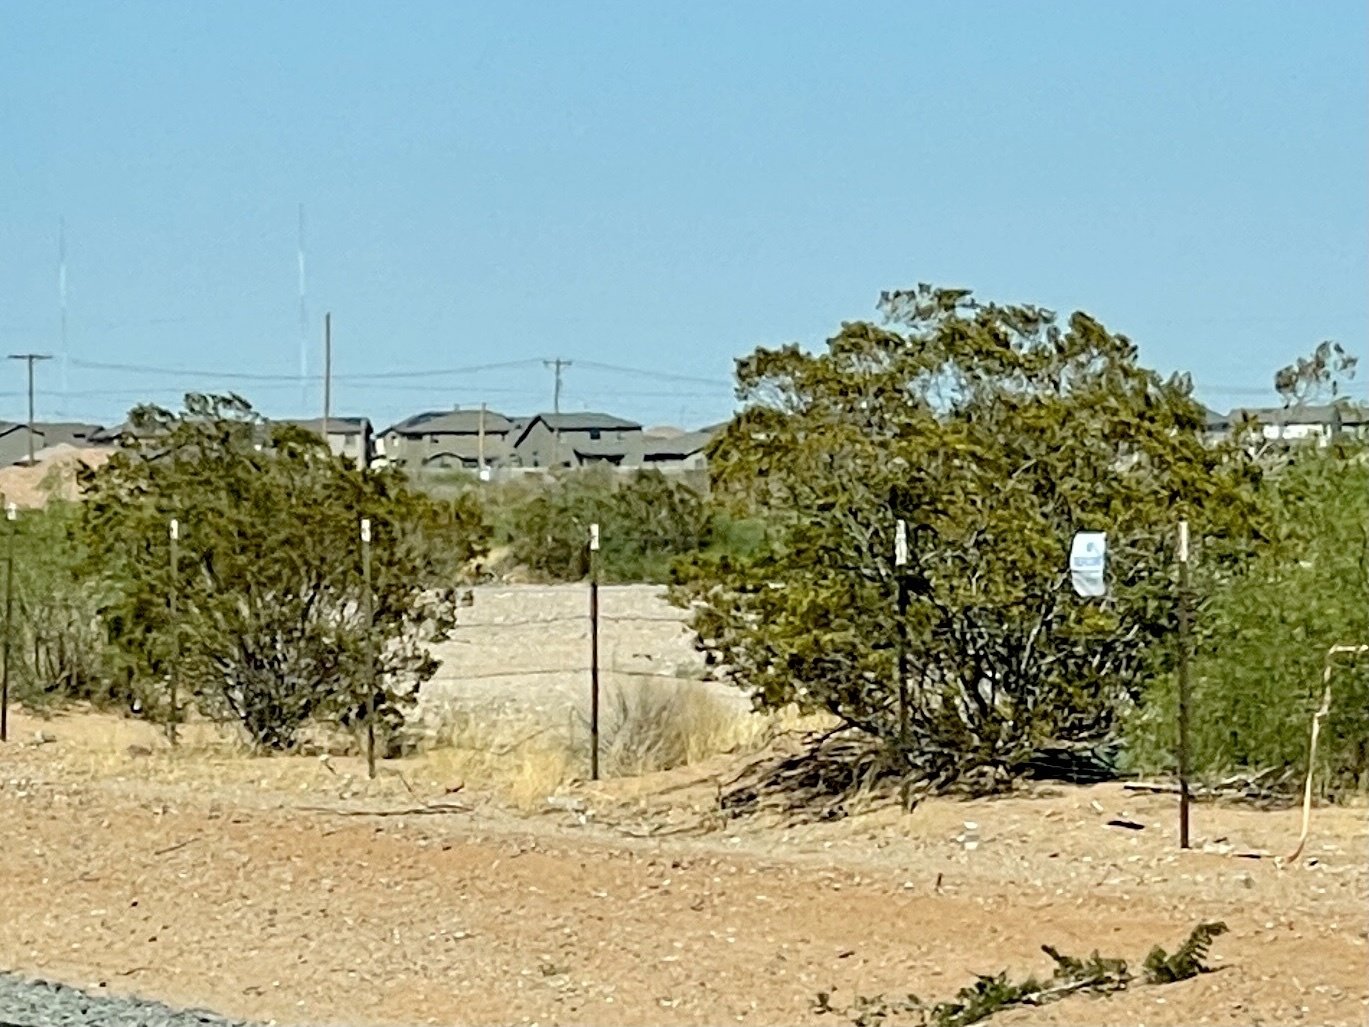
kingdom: Plantae
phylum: Tracheophyta
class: Magnoliopsida
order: Zygophyllales
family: Zygophyllaceae
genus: Larrea
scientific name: Larrea tridentata
